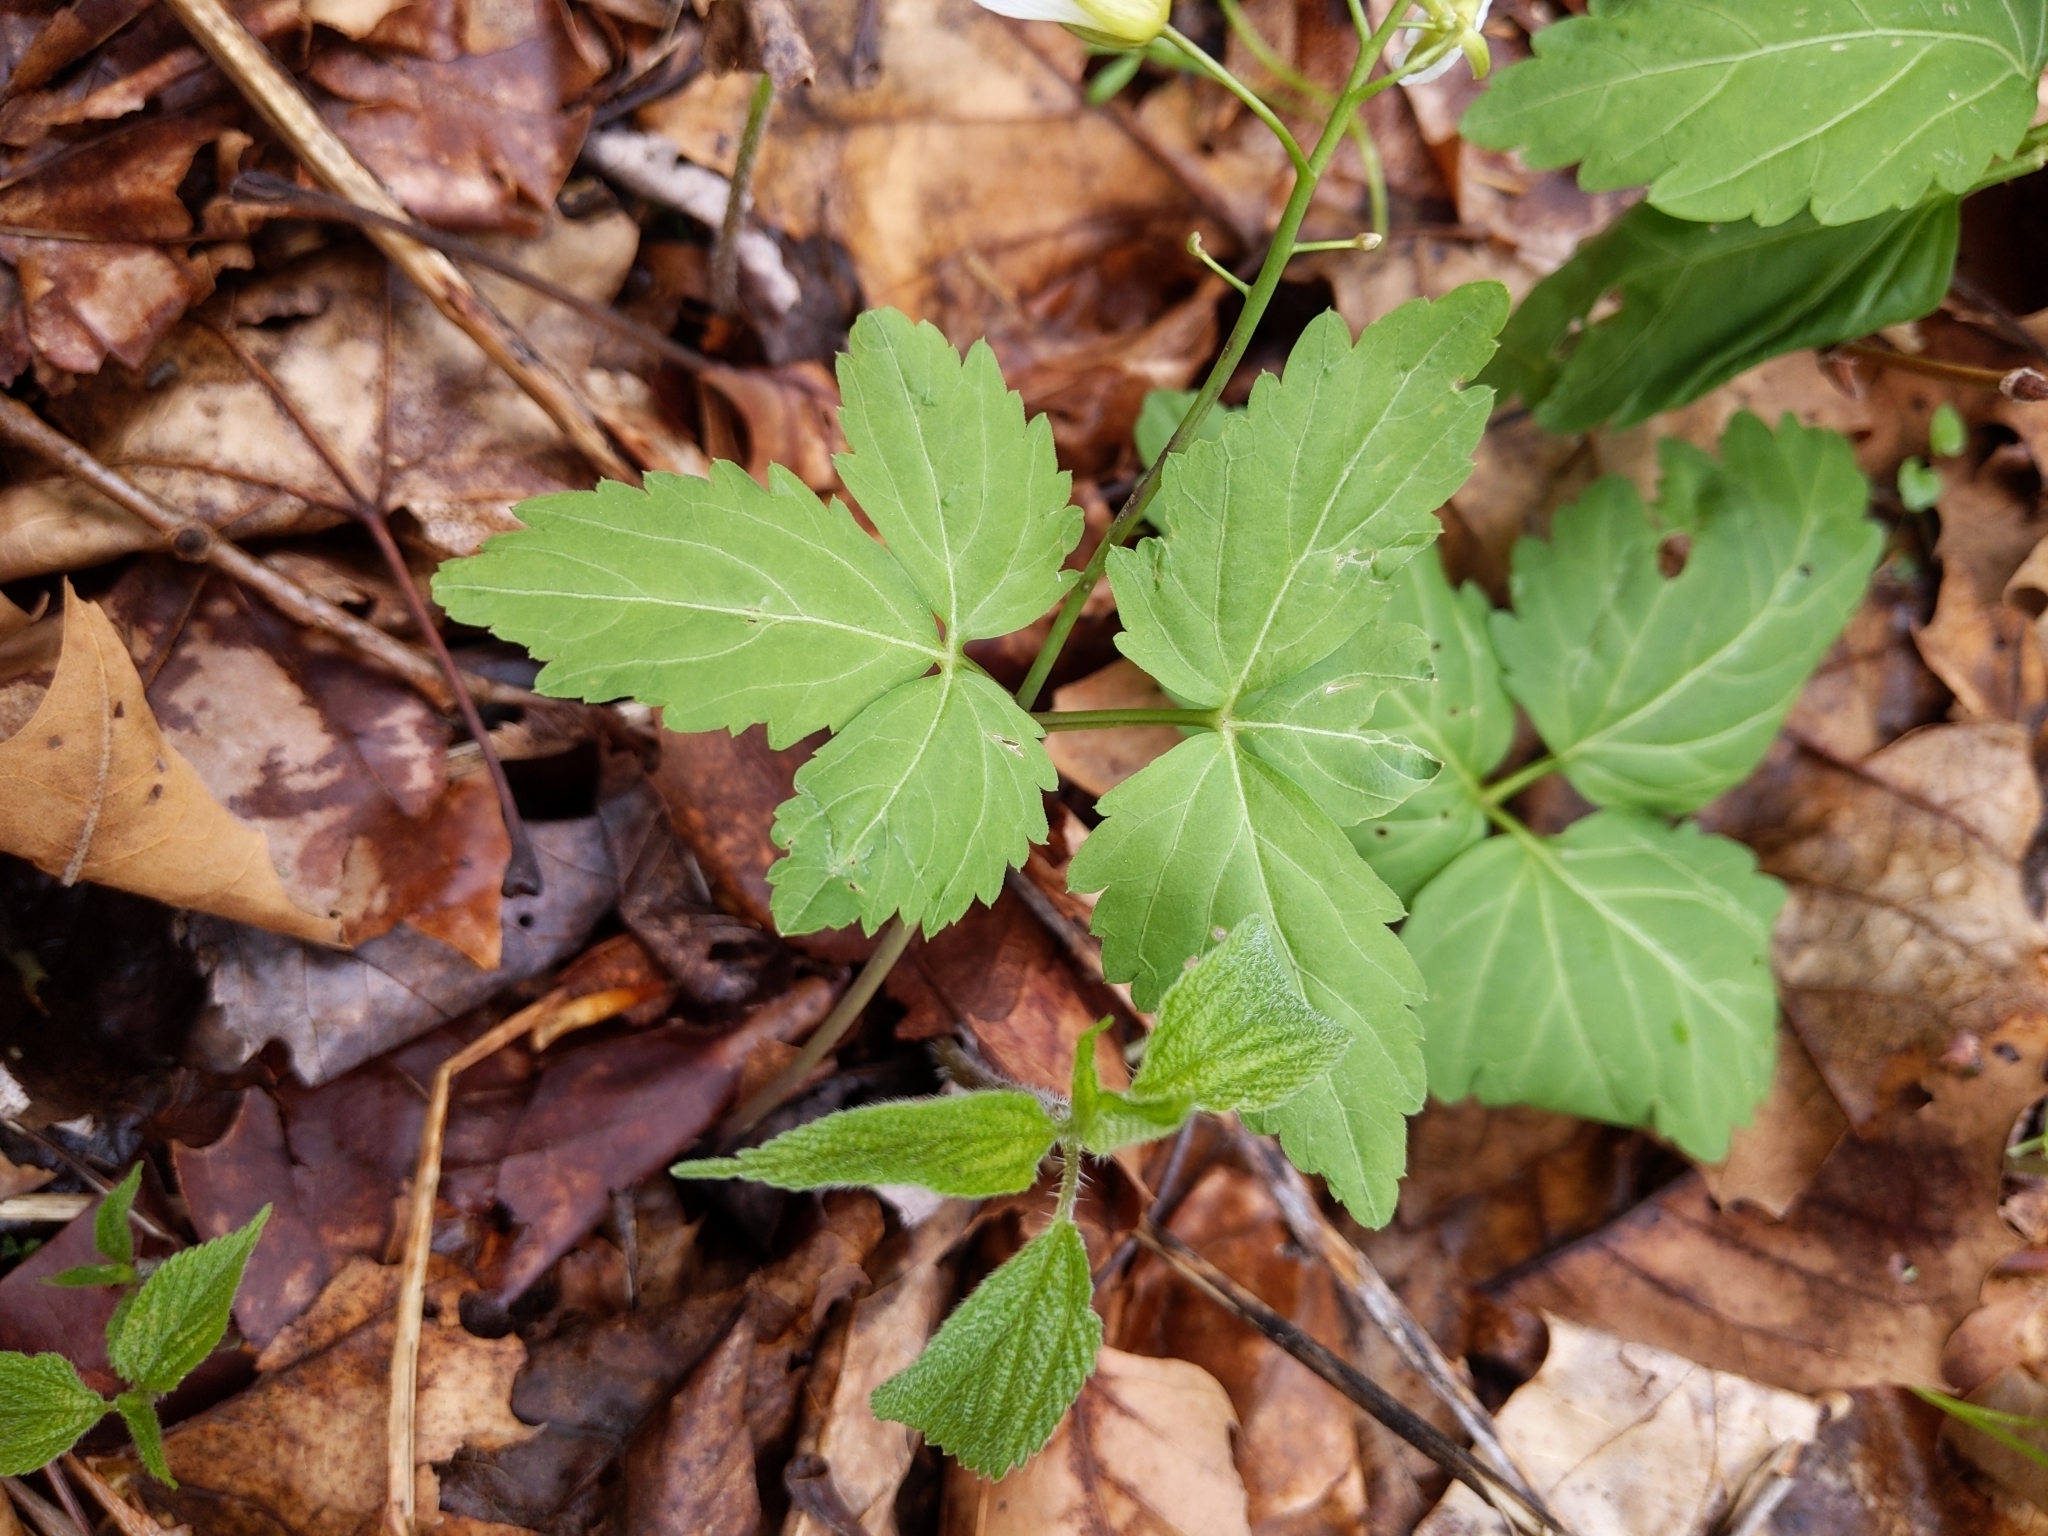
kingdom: Plantae
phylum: Tracheophyta
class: Magnoliopsida
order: Brassicales
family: Brassicaceae
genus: Cardamine
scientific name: Cardamine diphylla
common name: Broad-leaved toothwort
